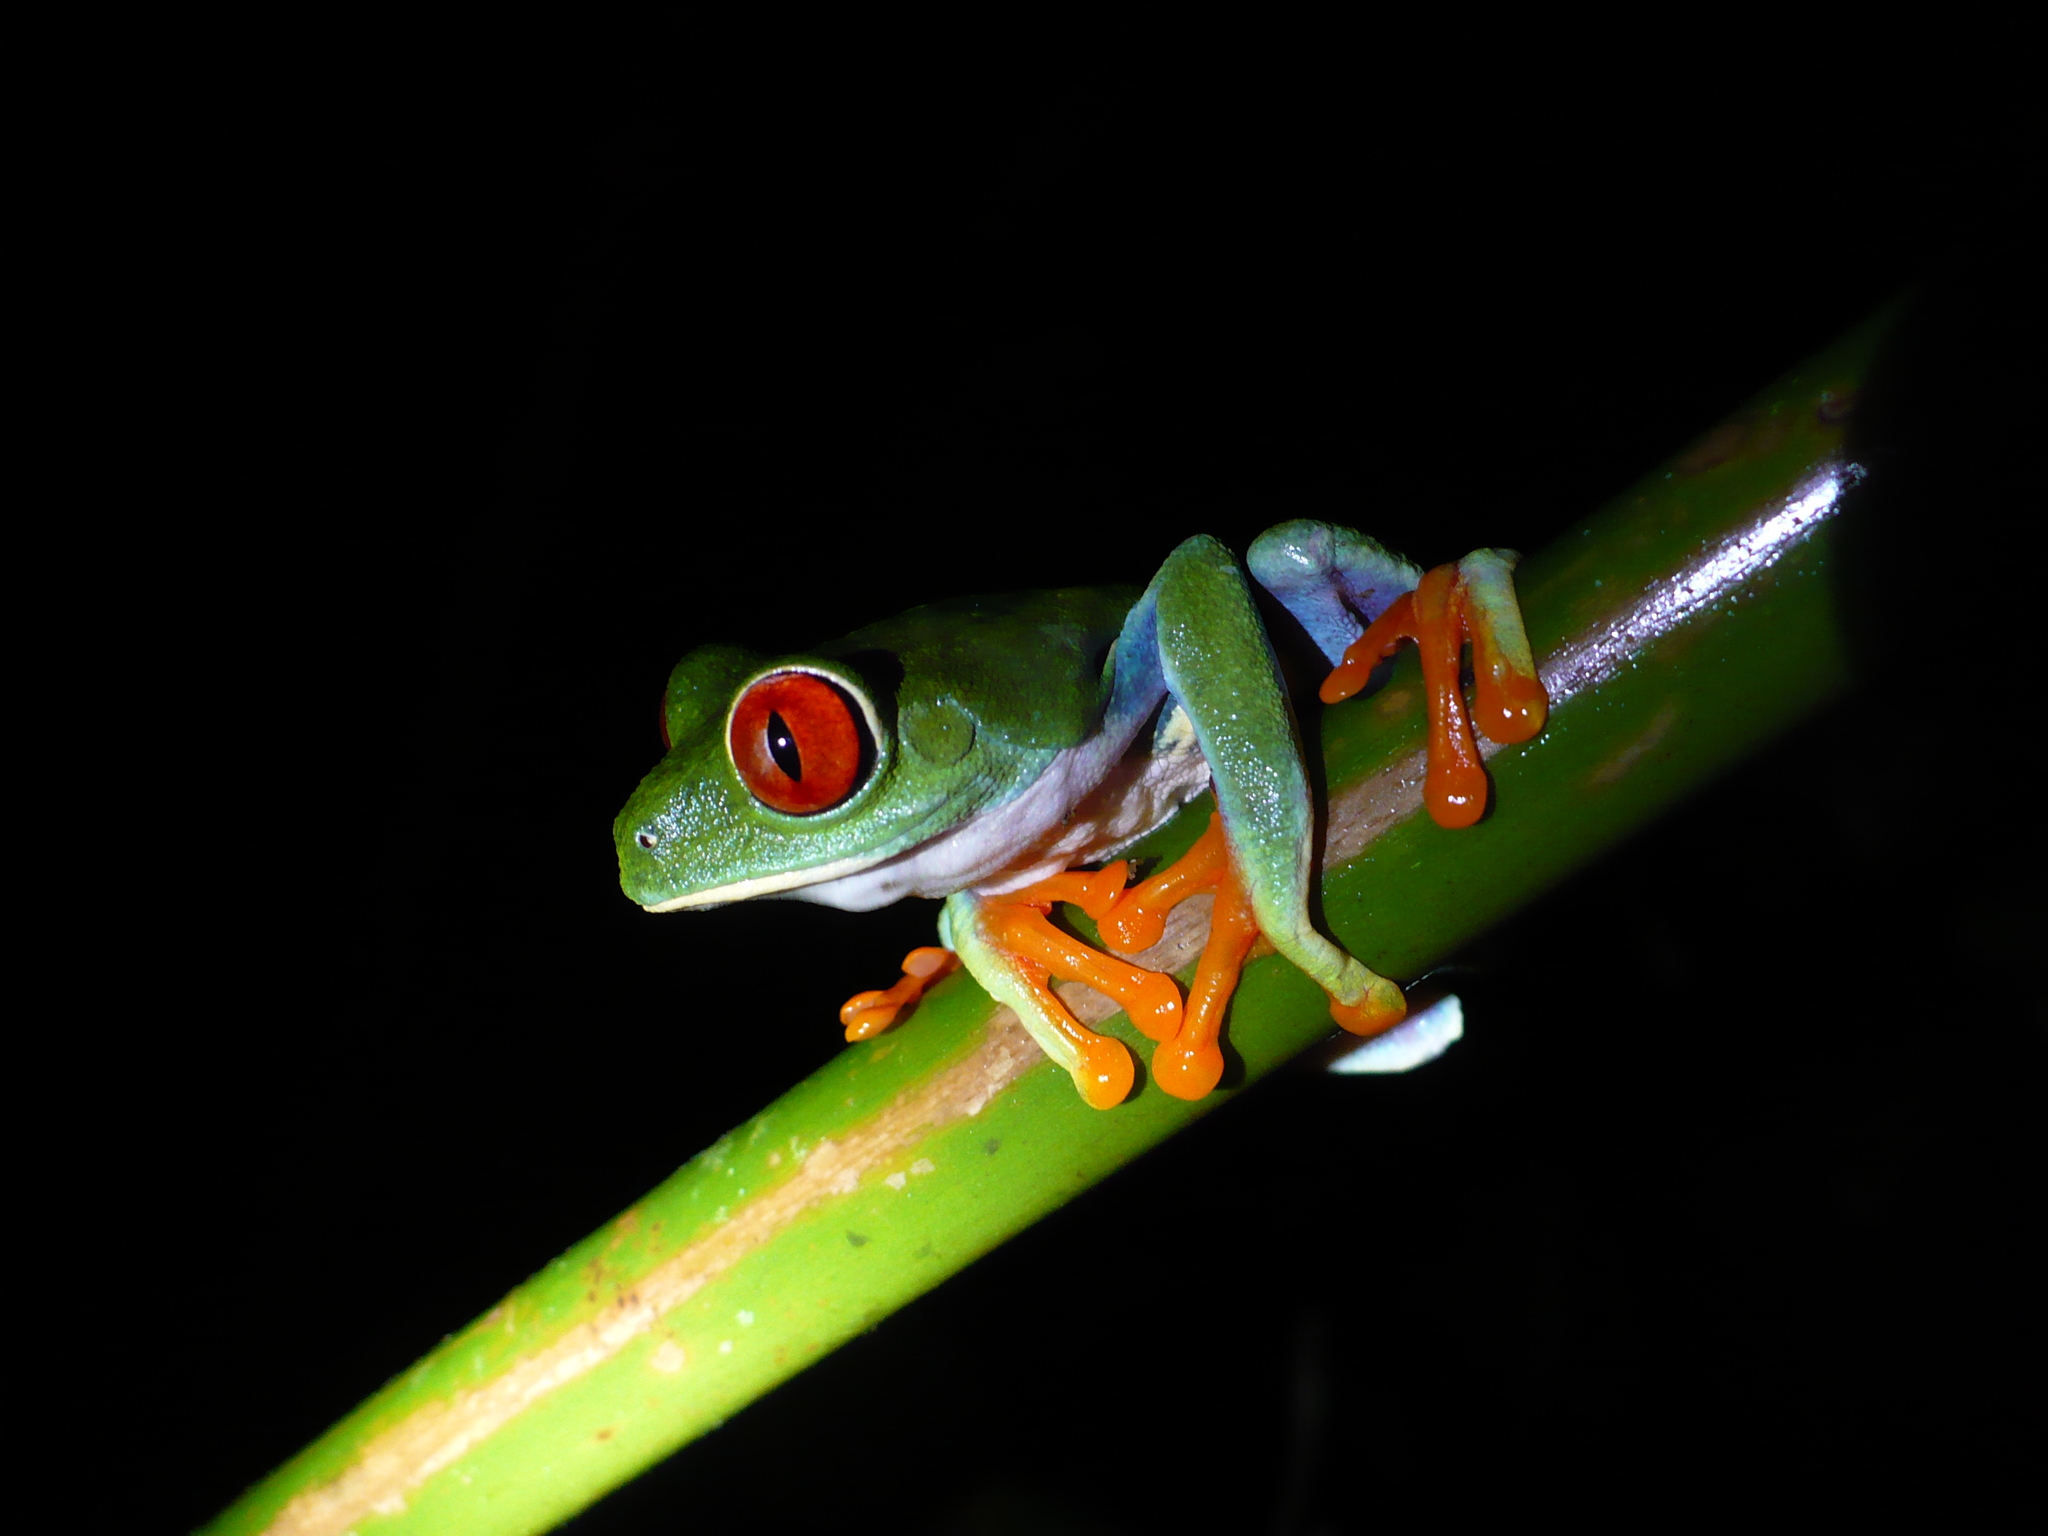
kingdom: Animalia
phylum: Chordata
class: Amphibia
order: Anura
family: Phyllomedusidae
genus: Agalychnis
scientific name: Agalychnis callidryas
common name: Red-eyed treefrog
